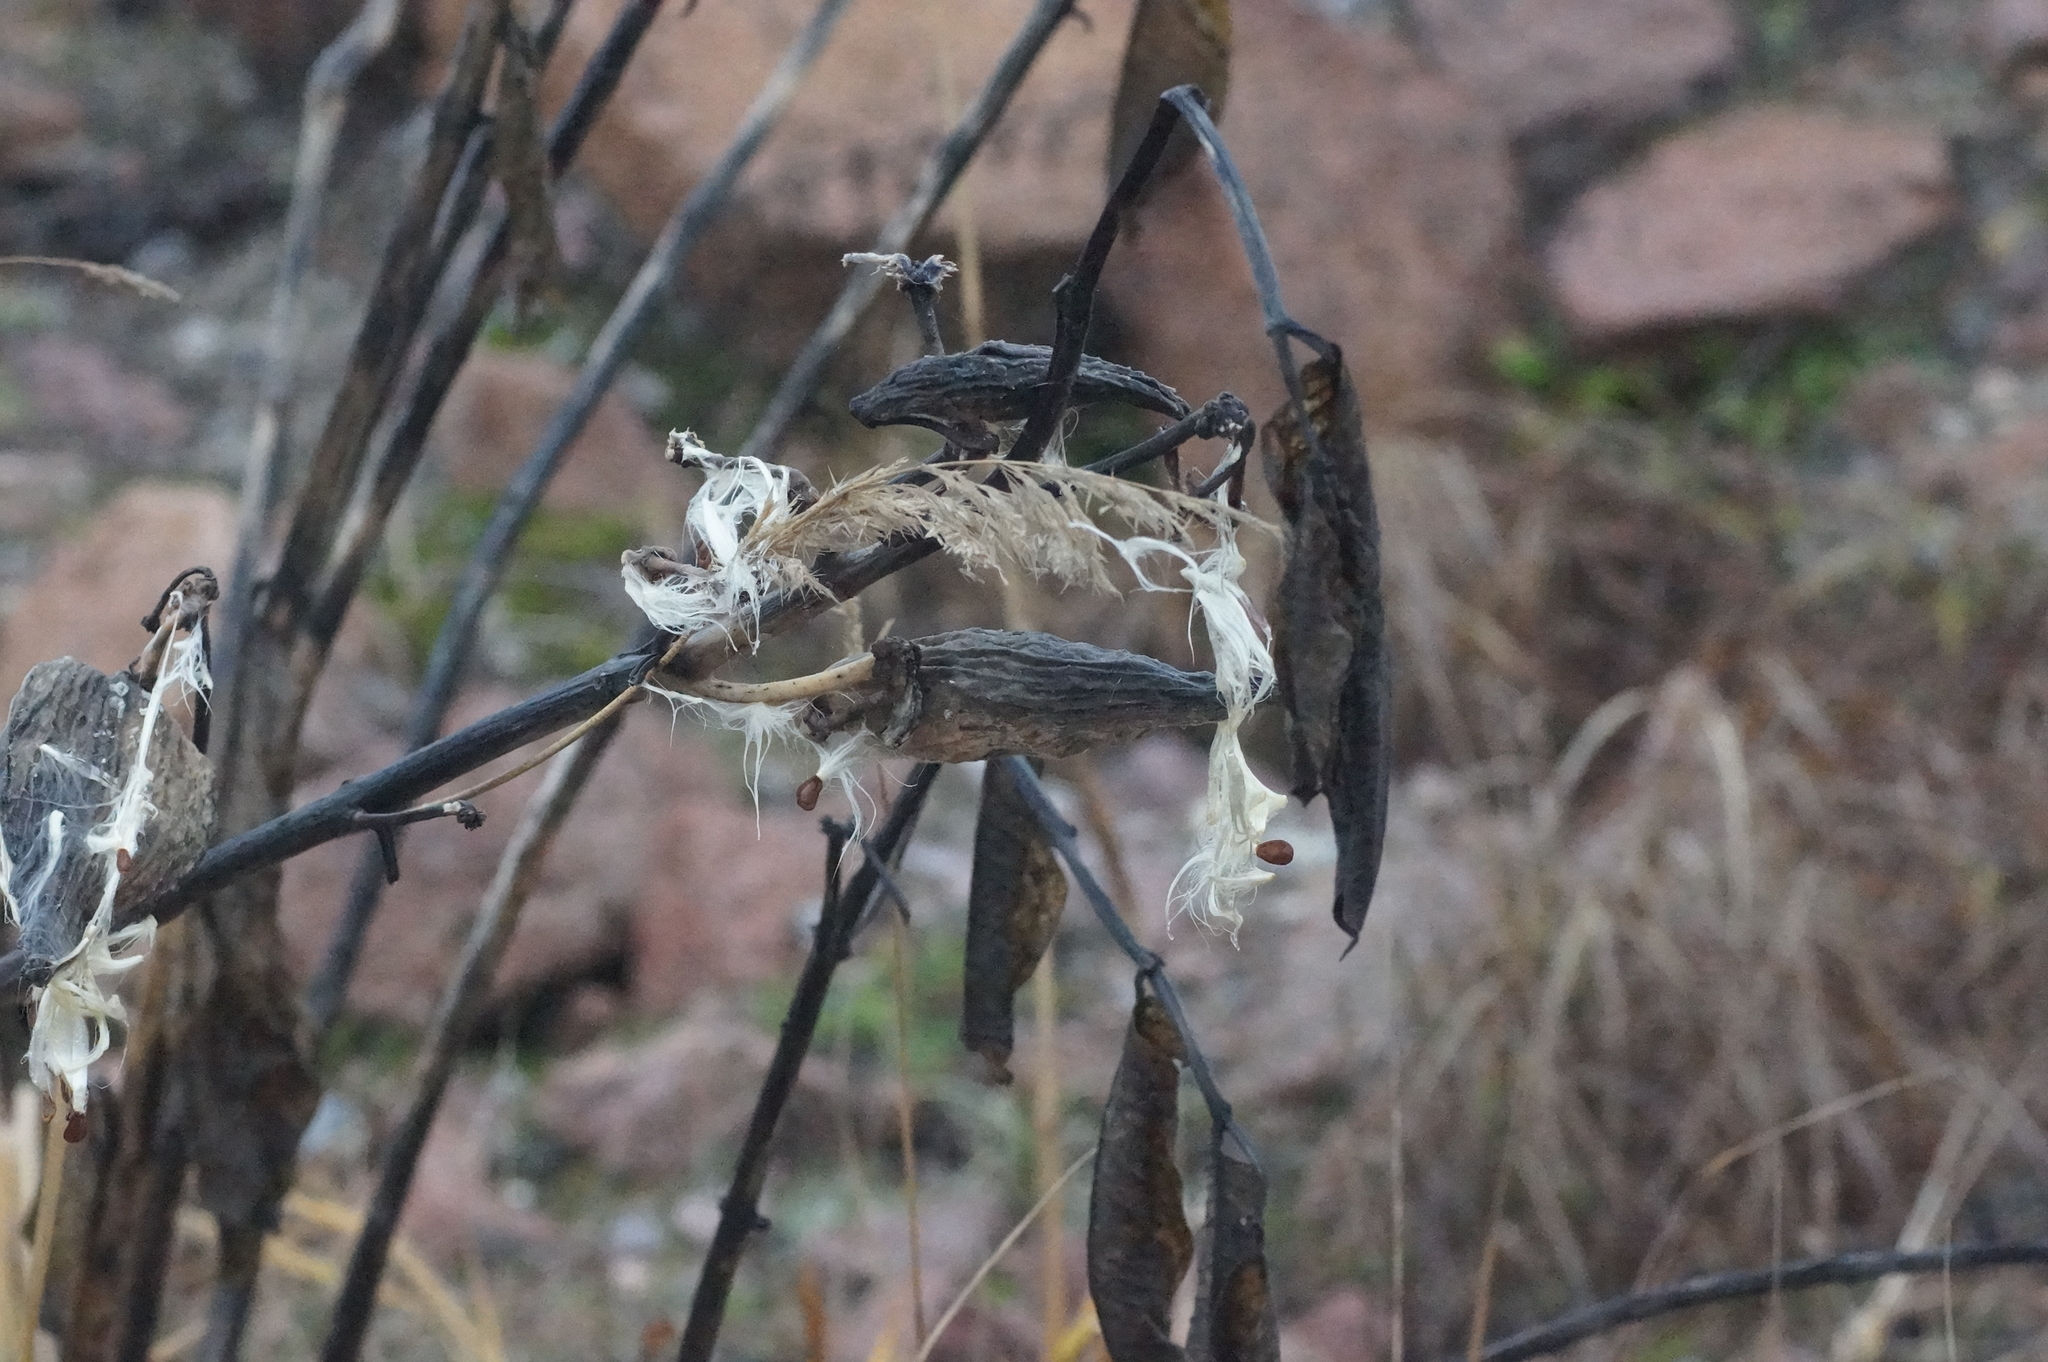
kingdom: Plantae
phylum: Tracheophyta
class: Magnoliopsida
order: Gentianales
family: Apocynaceae
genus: Asclepias
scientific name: Asclepias syriaca
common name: Common milkweed
